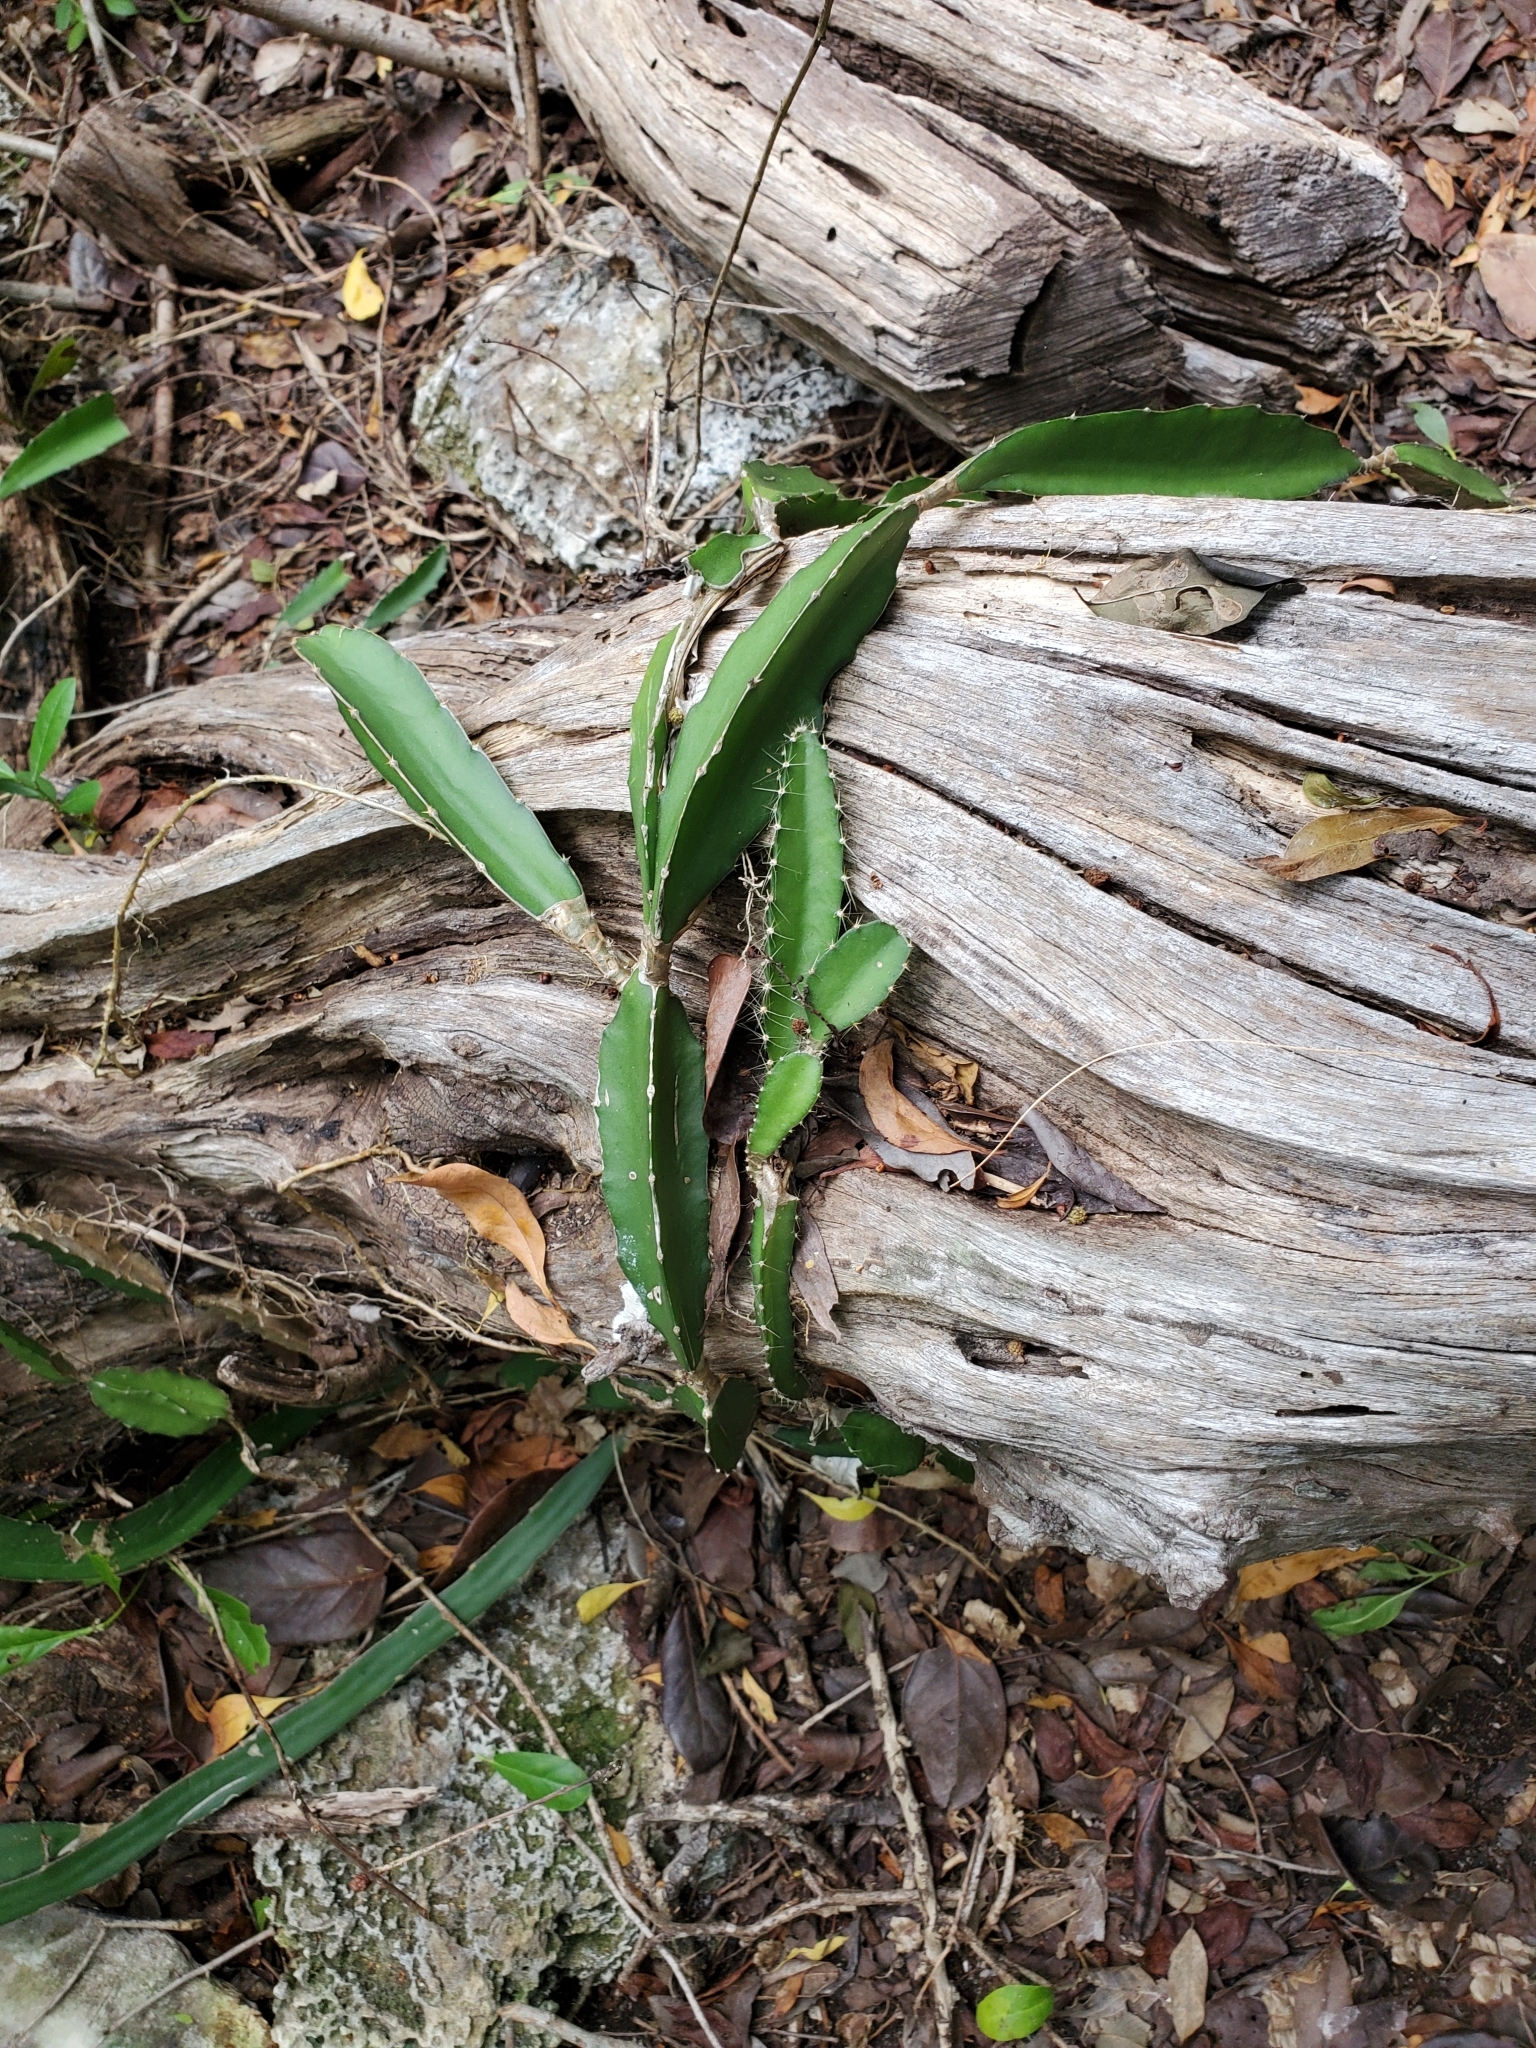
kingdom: Plantae
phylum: Tracheophyta
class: Magnoliopsida
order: Caryophyllales
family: Cactaceae
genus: Acanthocereus
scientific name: Acanthocereus tetragonus
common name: Triangle cactus
